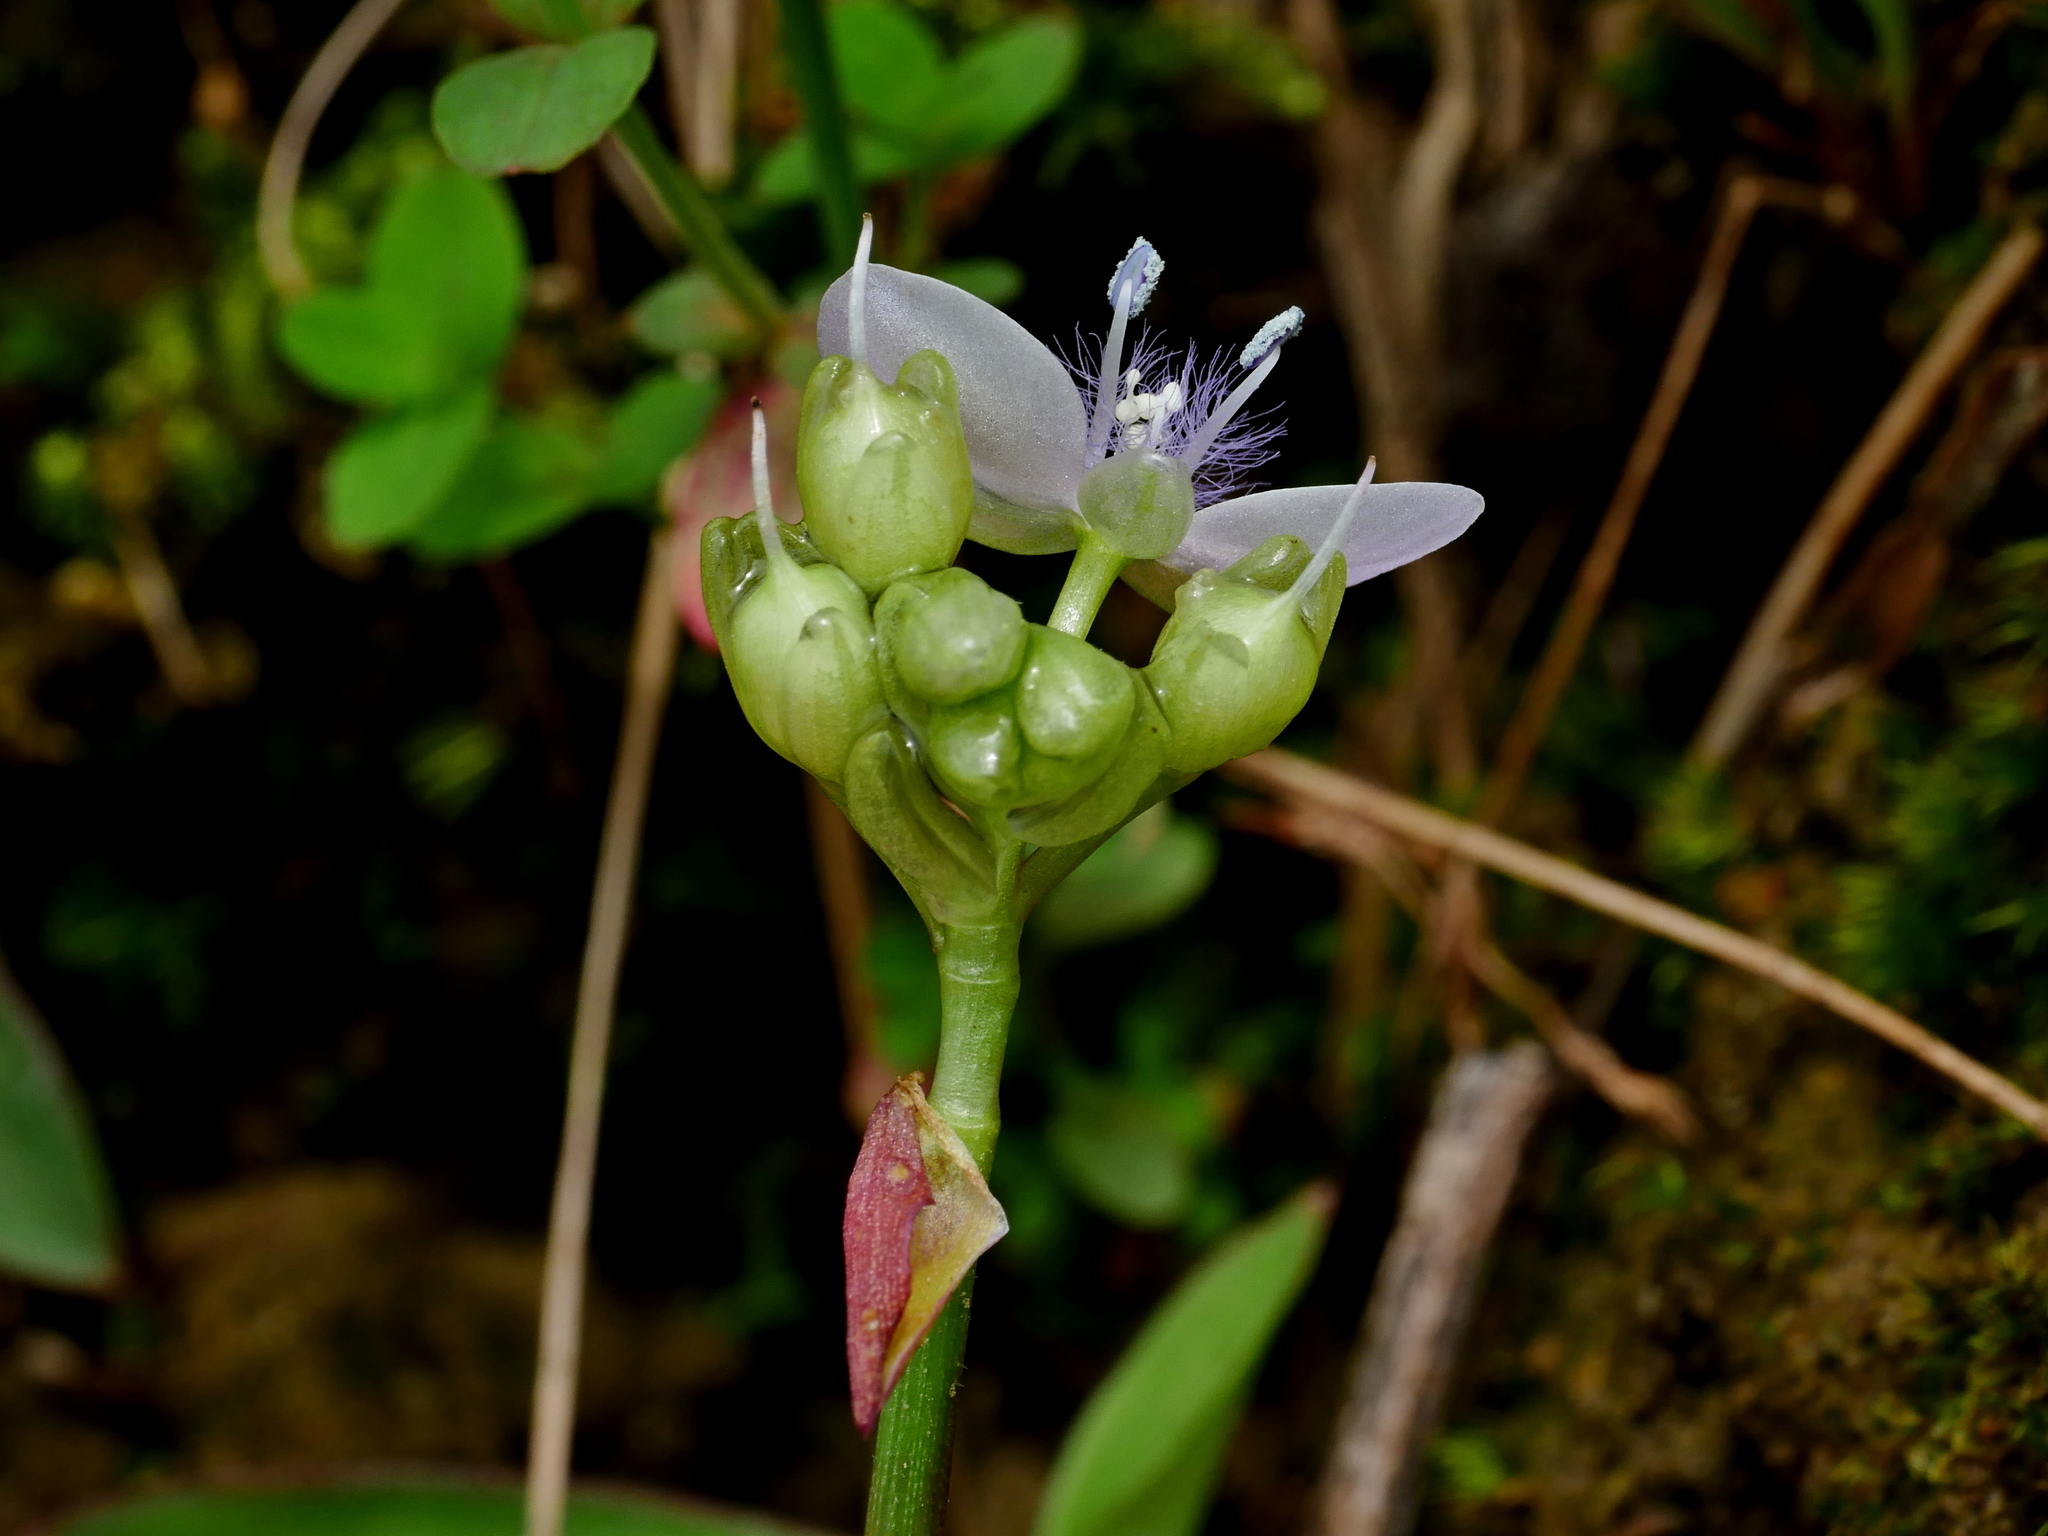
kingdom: Plantae
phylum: Tracheophyta
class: Liliopsida
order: Commelinales
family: Commelinaceae
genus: Murdannia
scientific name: Murdannia loriformis
